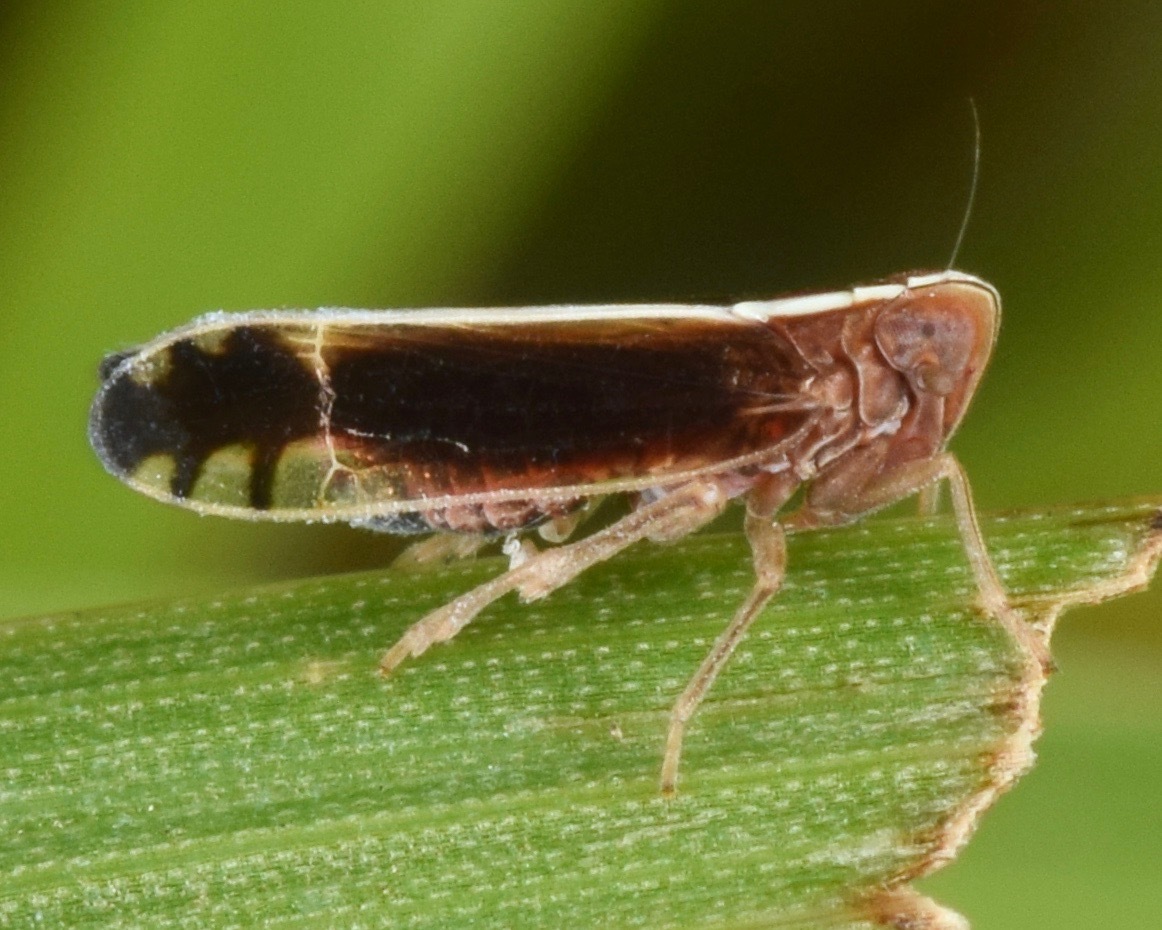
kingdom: Animalia
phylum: Arthropoda
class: Insecta
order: Hemiptera
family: Delphacidae
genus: Stenocranus
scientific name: Stenocranus
